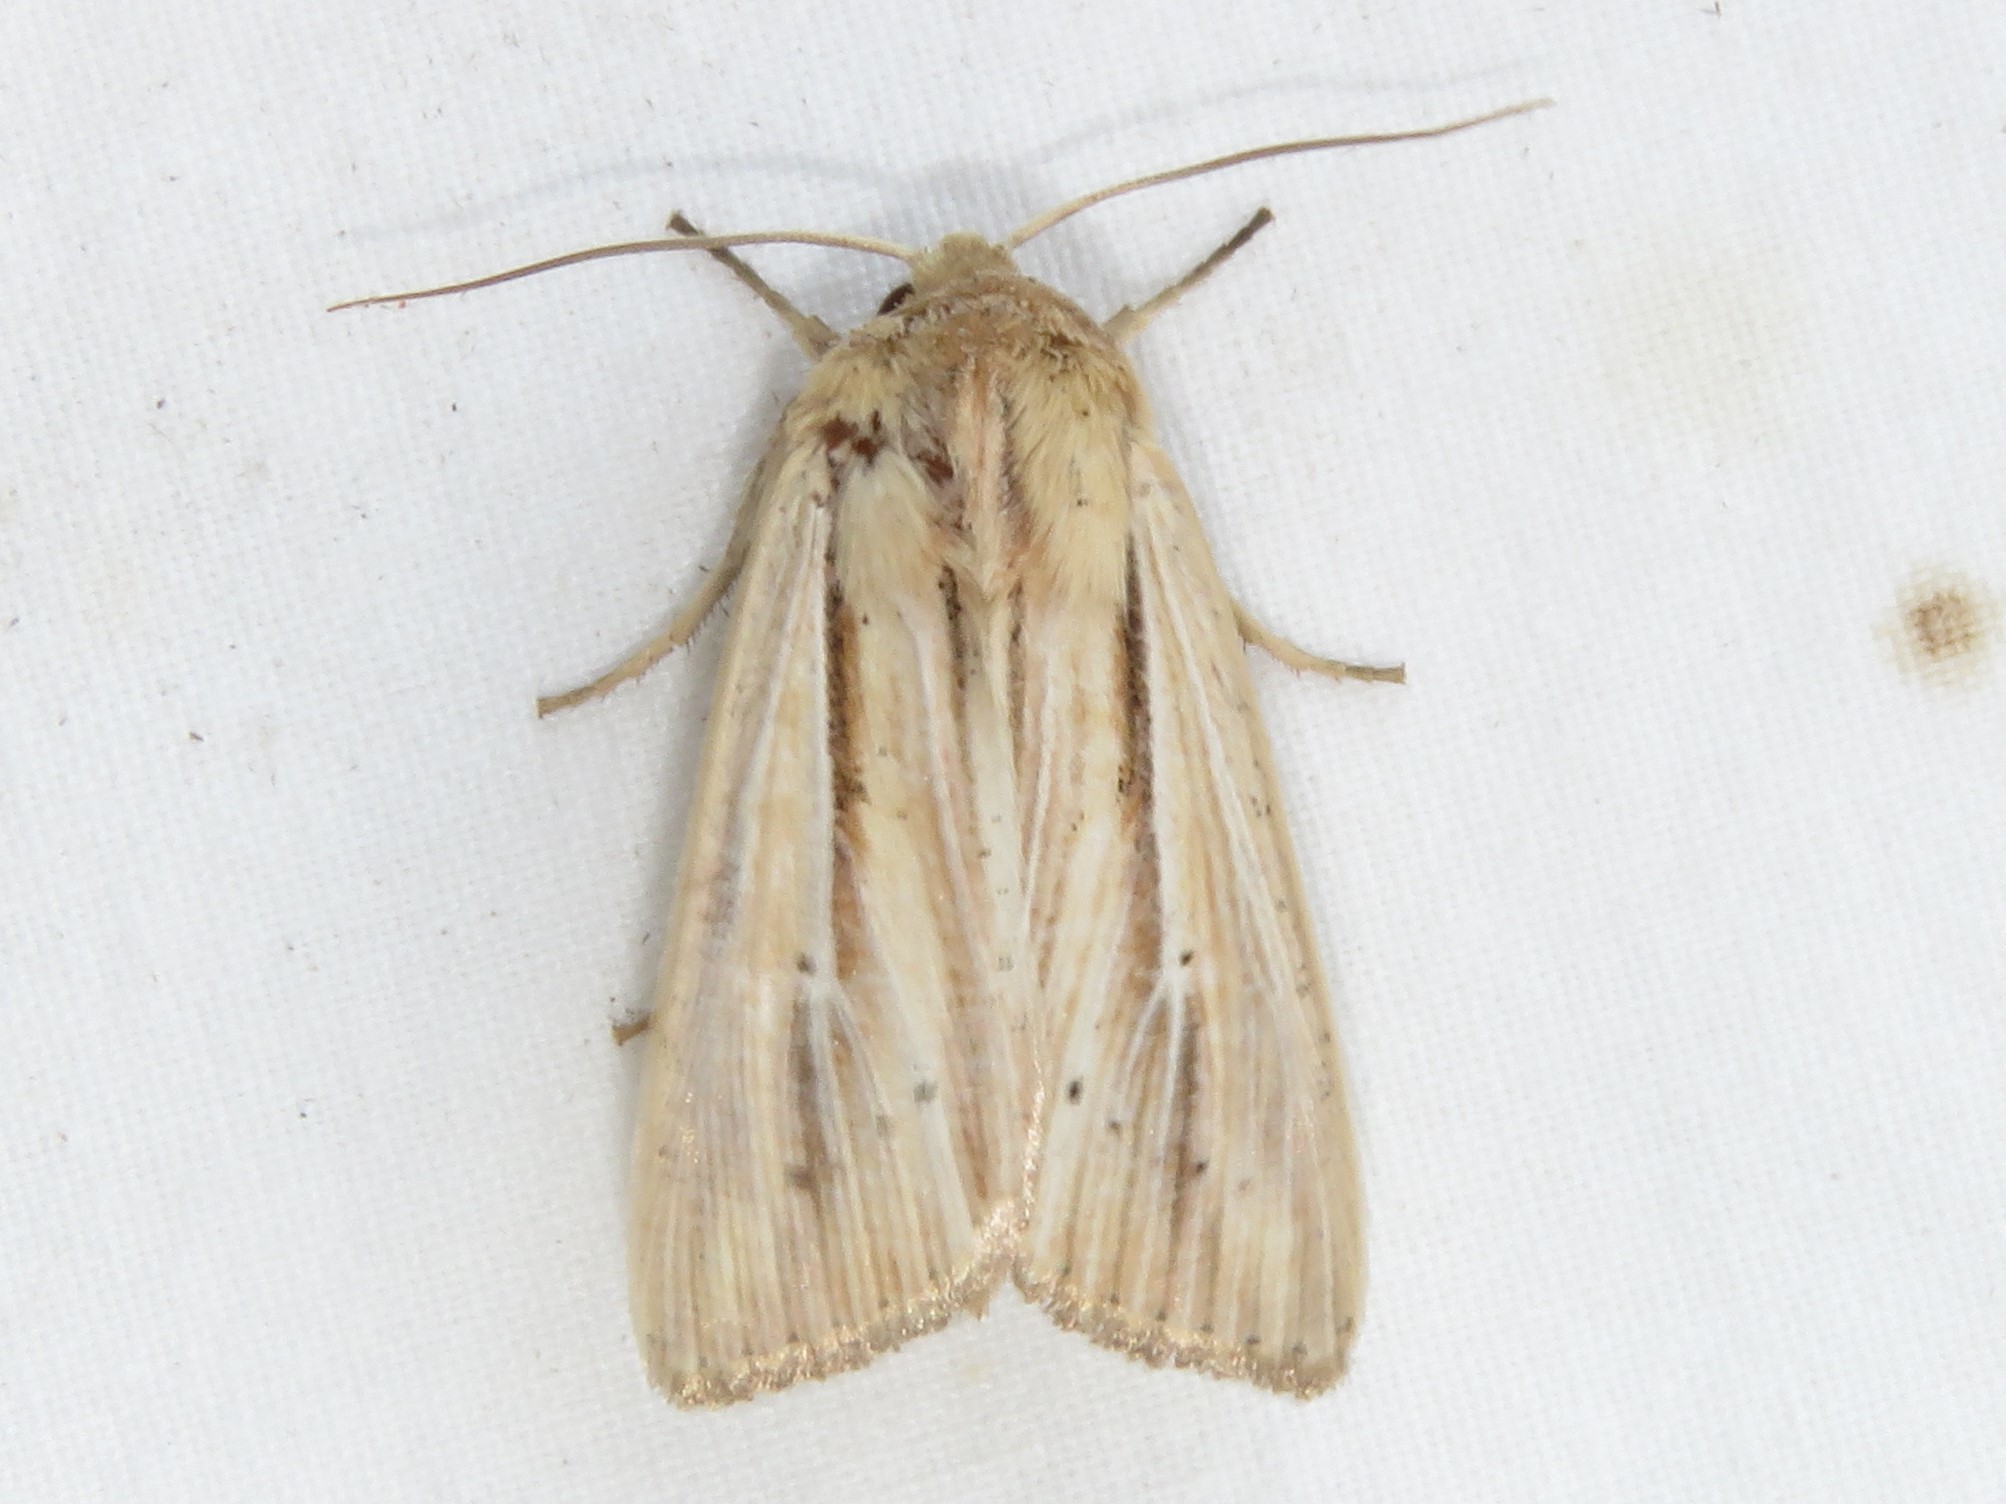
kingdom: Animalia
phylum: Arthropoda
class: Insecta
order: Lepidoptera
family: Noctuidae
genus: Mythimna
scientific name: Mythimna oxygala
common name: Lesser wainscot
